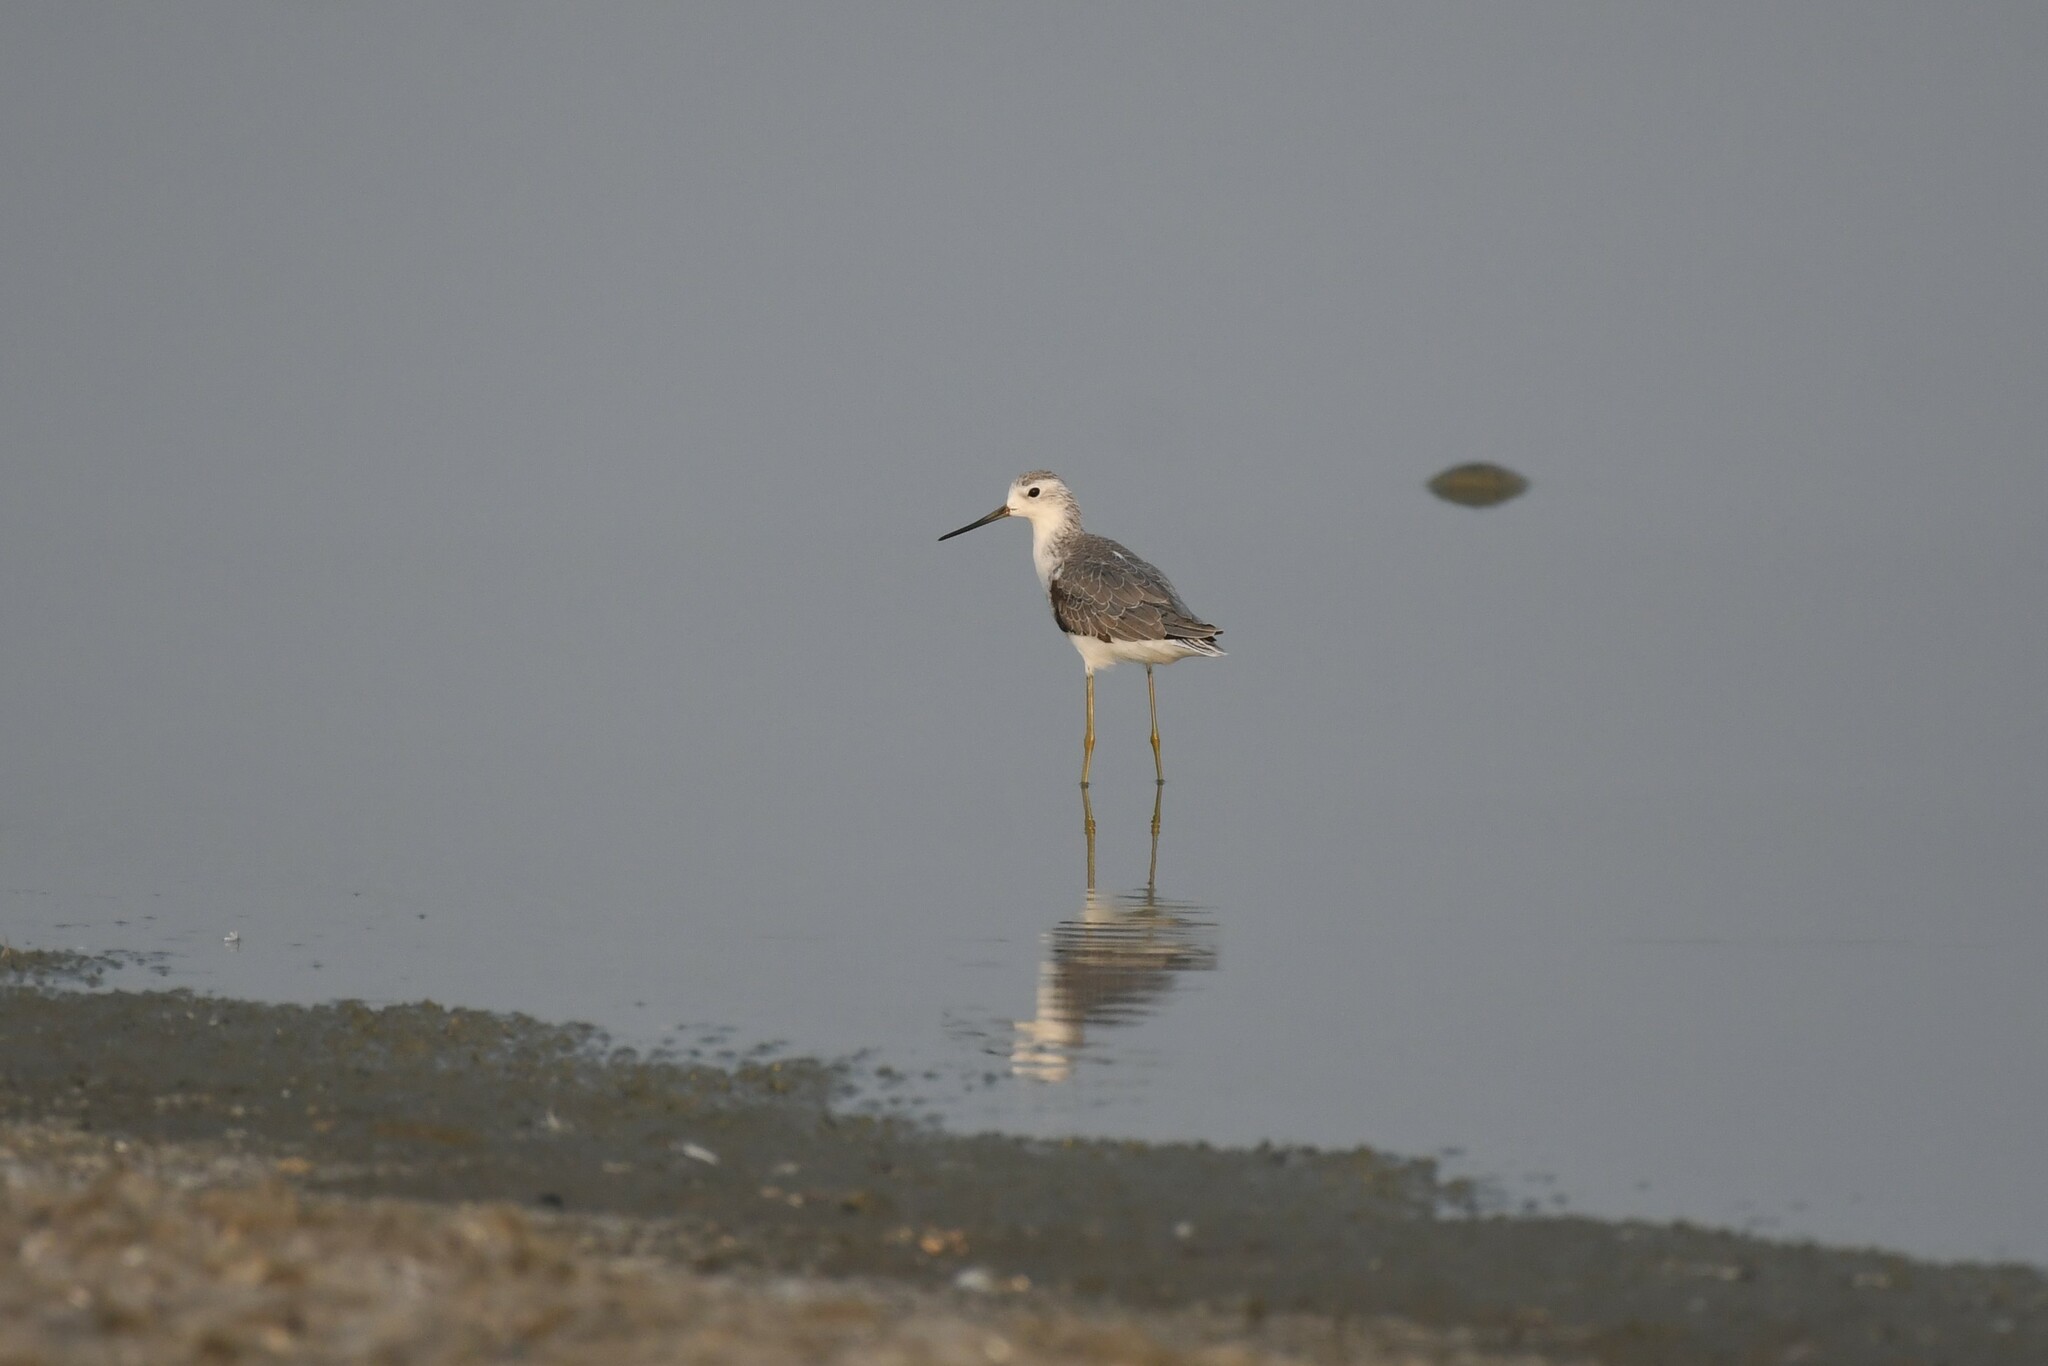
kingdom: Animalia
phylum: Chordata
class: Aves
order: Charadriiformes
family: Scolopacidae
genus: Tringa
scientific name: Tringa stagnatilis
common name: Marsh sandpiper
